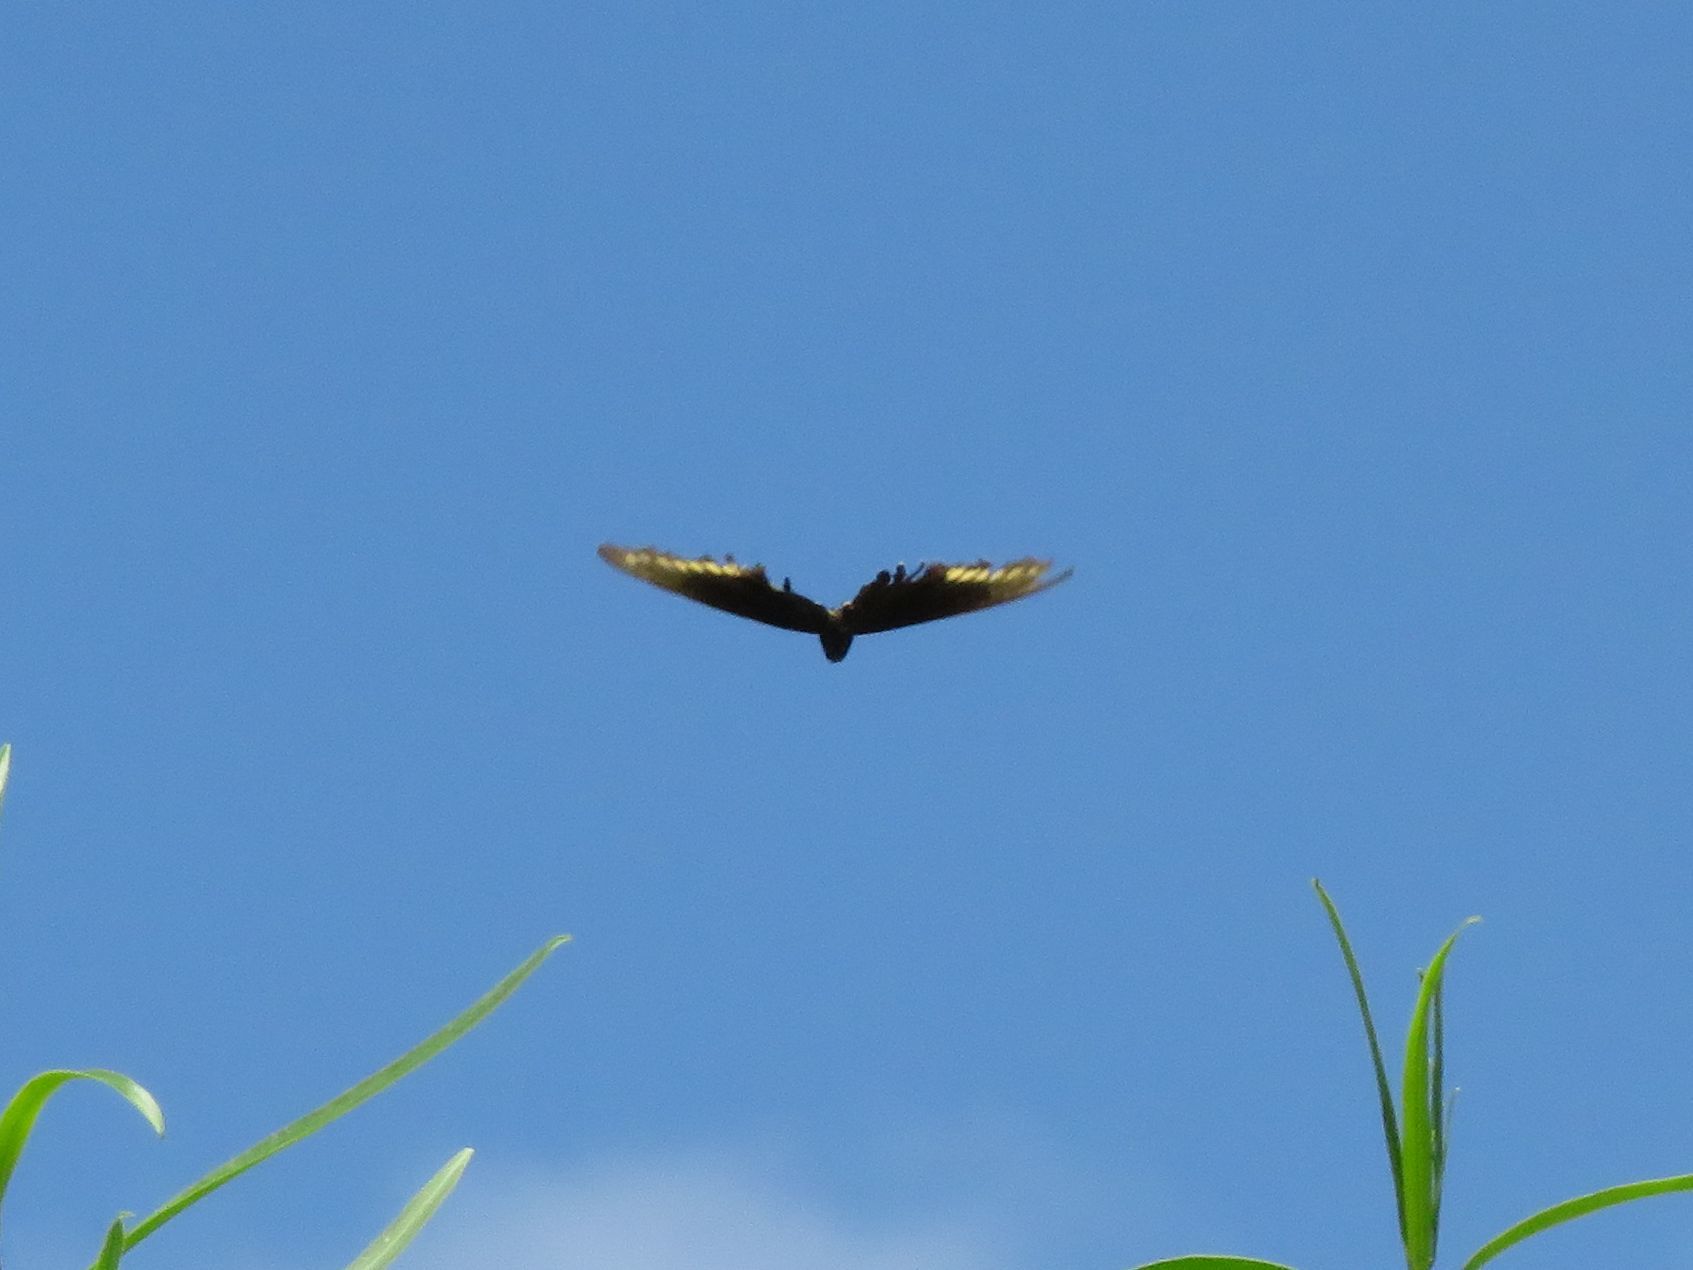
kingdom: Animalia
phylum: Arthropoda
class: Insecta
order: Lepidoptera
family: Papilionidae
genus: Battus
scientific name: Battus polydamas
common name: Polydamas swallowtail
